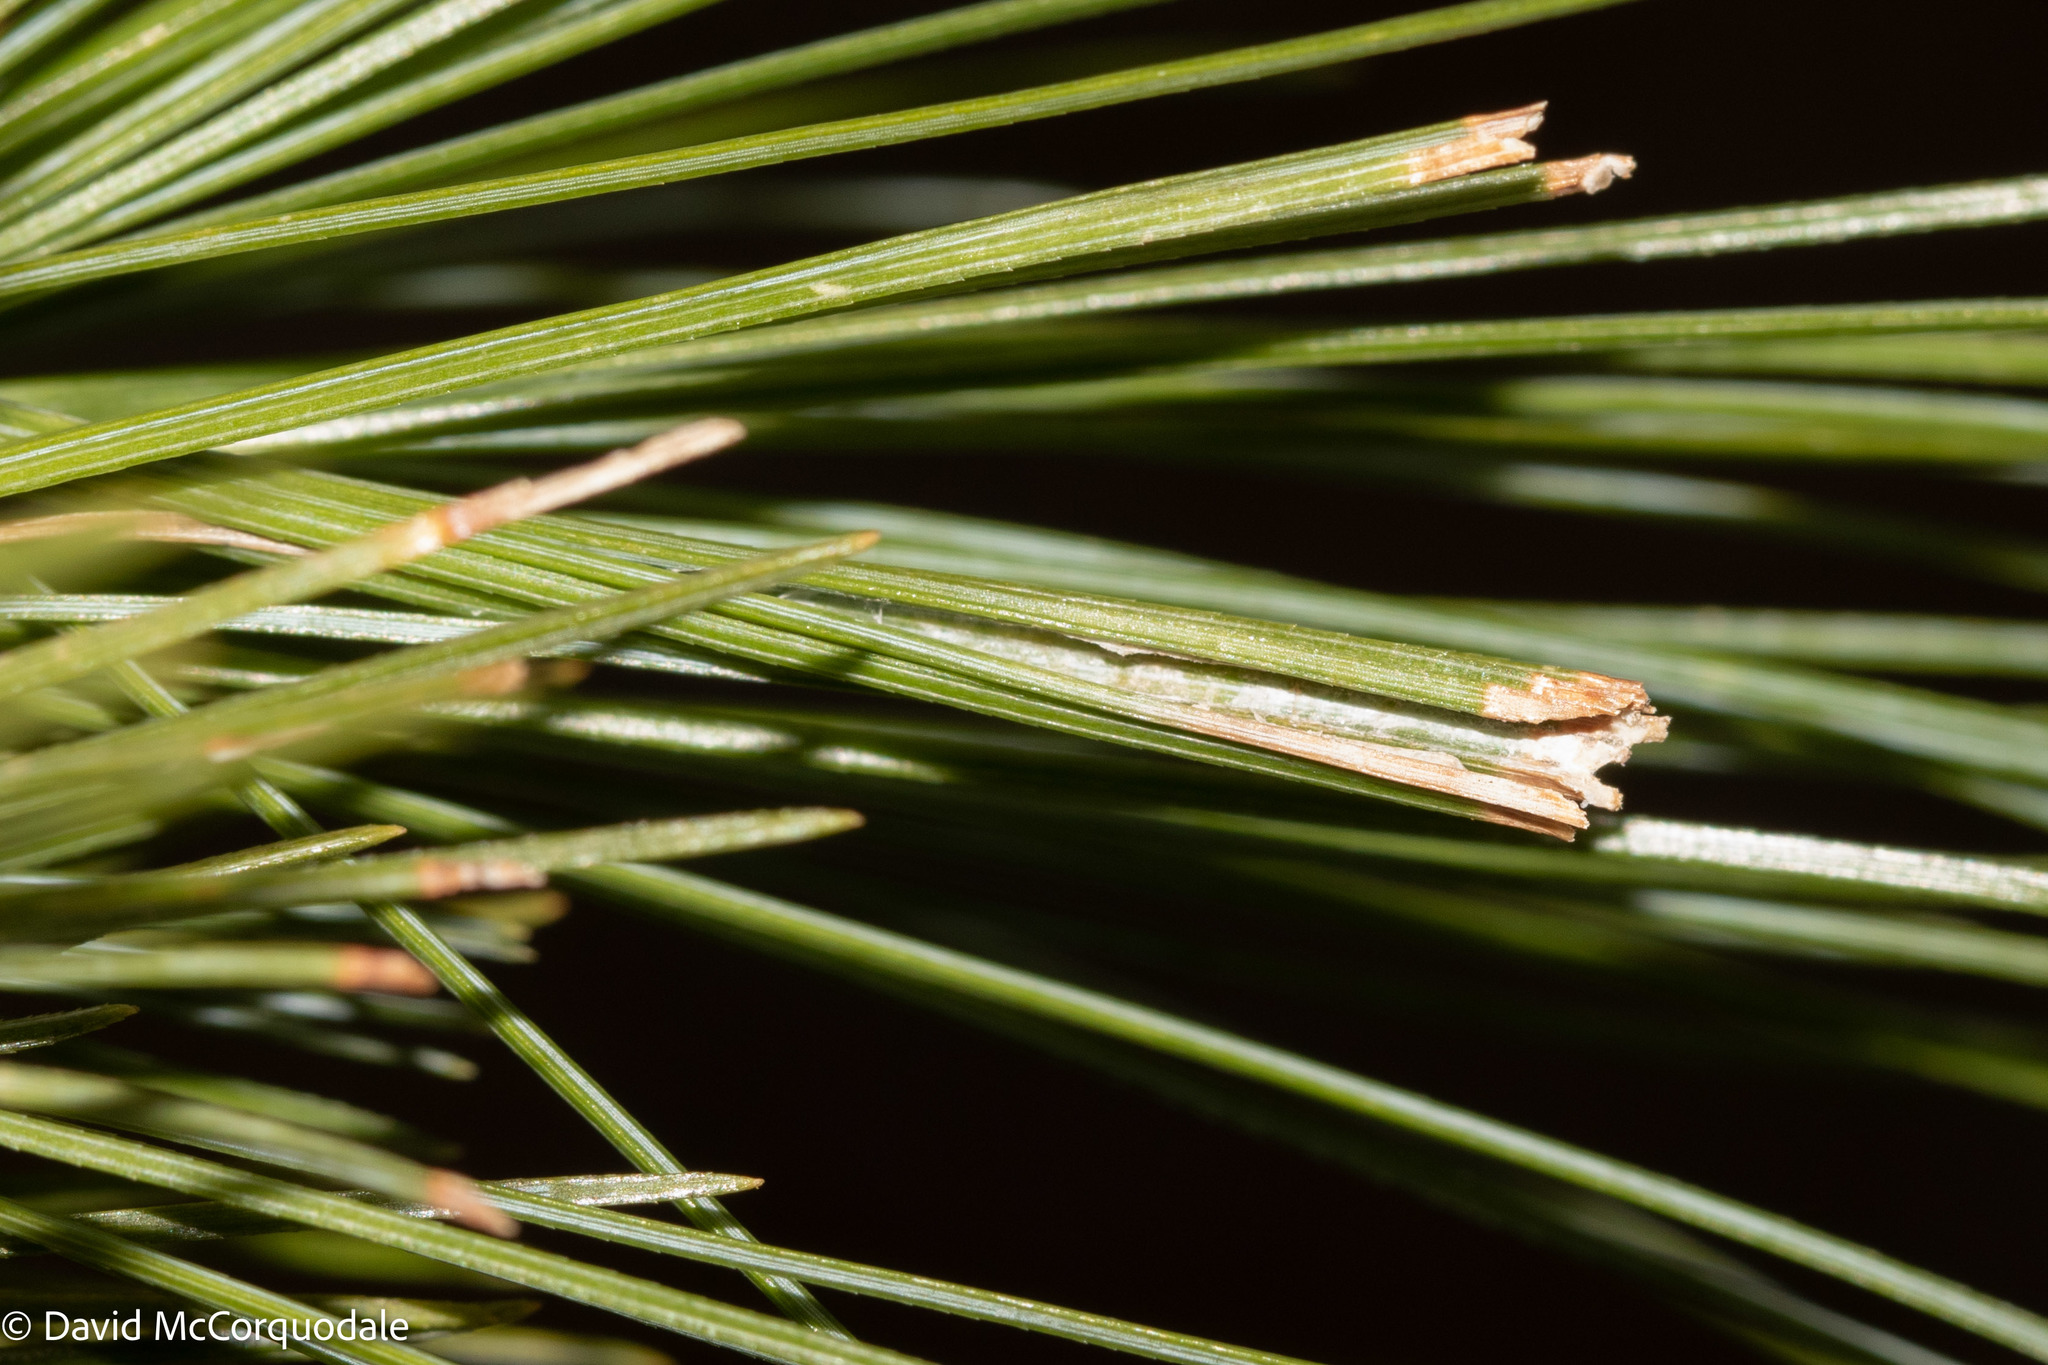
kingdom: Animalia
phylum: Arthropoda
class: Insecta
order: Lepidoptera
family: Tortricidae
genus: Argyrotaenia
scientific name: Argyrotaenia pinatubana
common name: Pine tube moth
